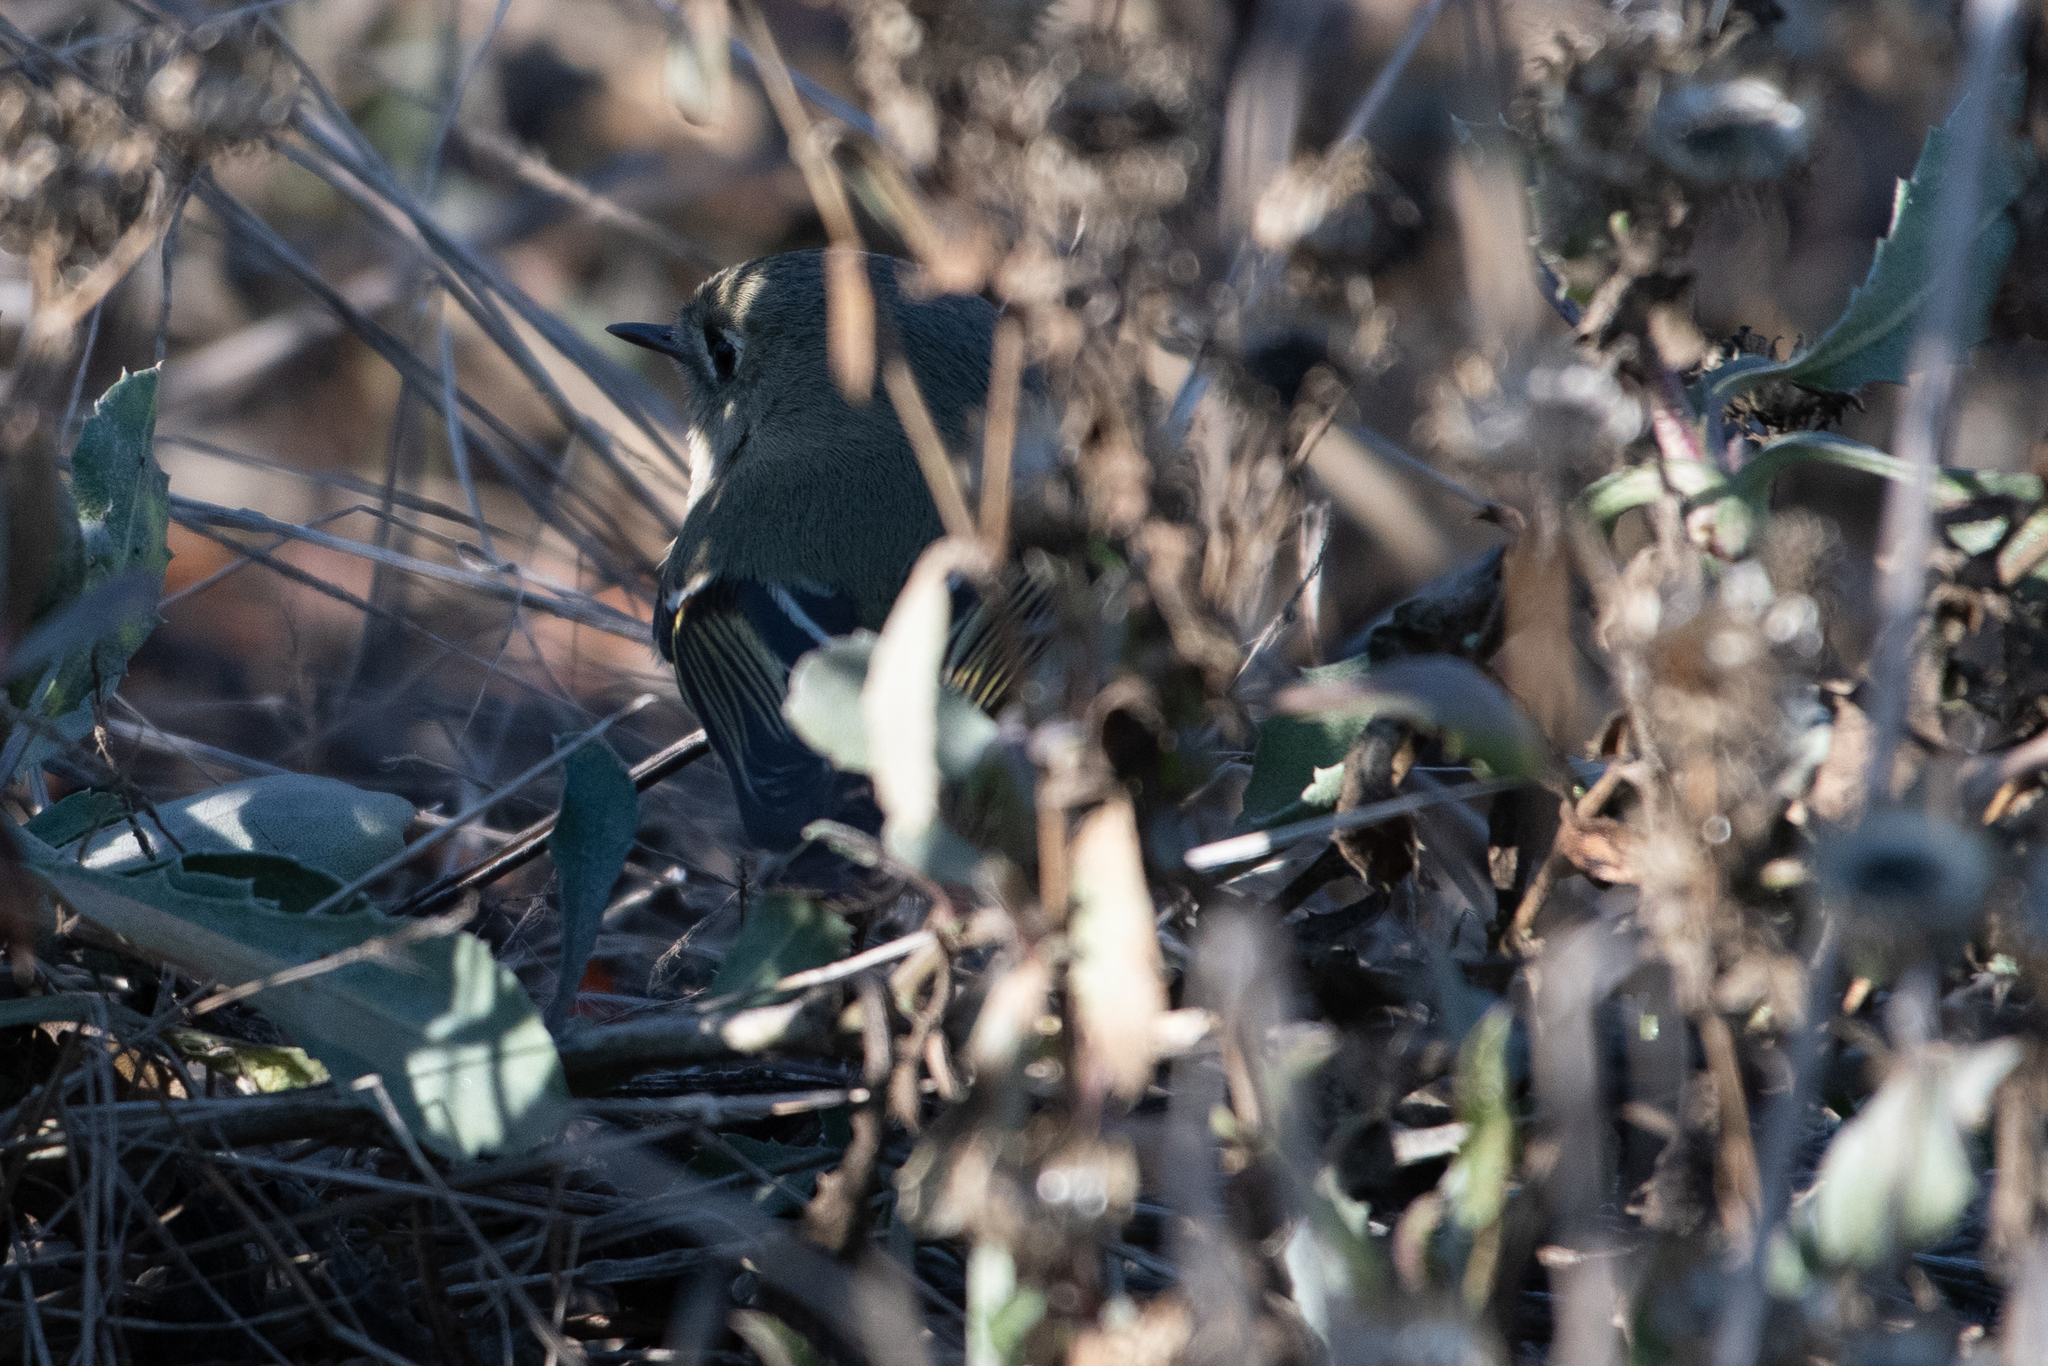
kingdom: Animalia
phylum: Chordata
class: Aves
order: Passeriformes
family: Regulidae
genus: Regulus
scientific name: Regulus calendula
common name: Ruby-crowned kinglet
